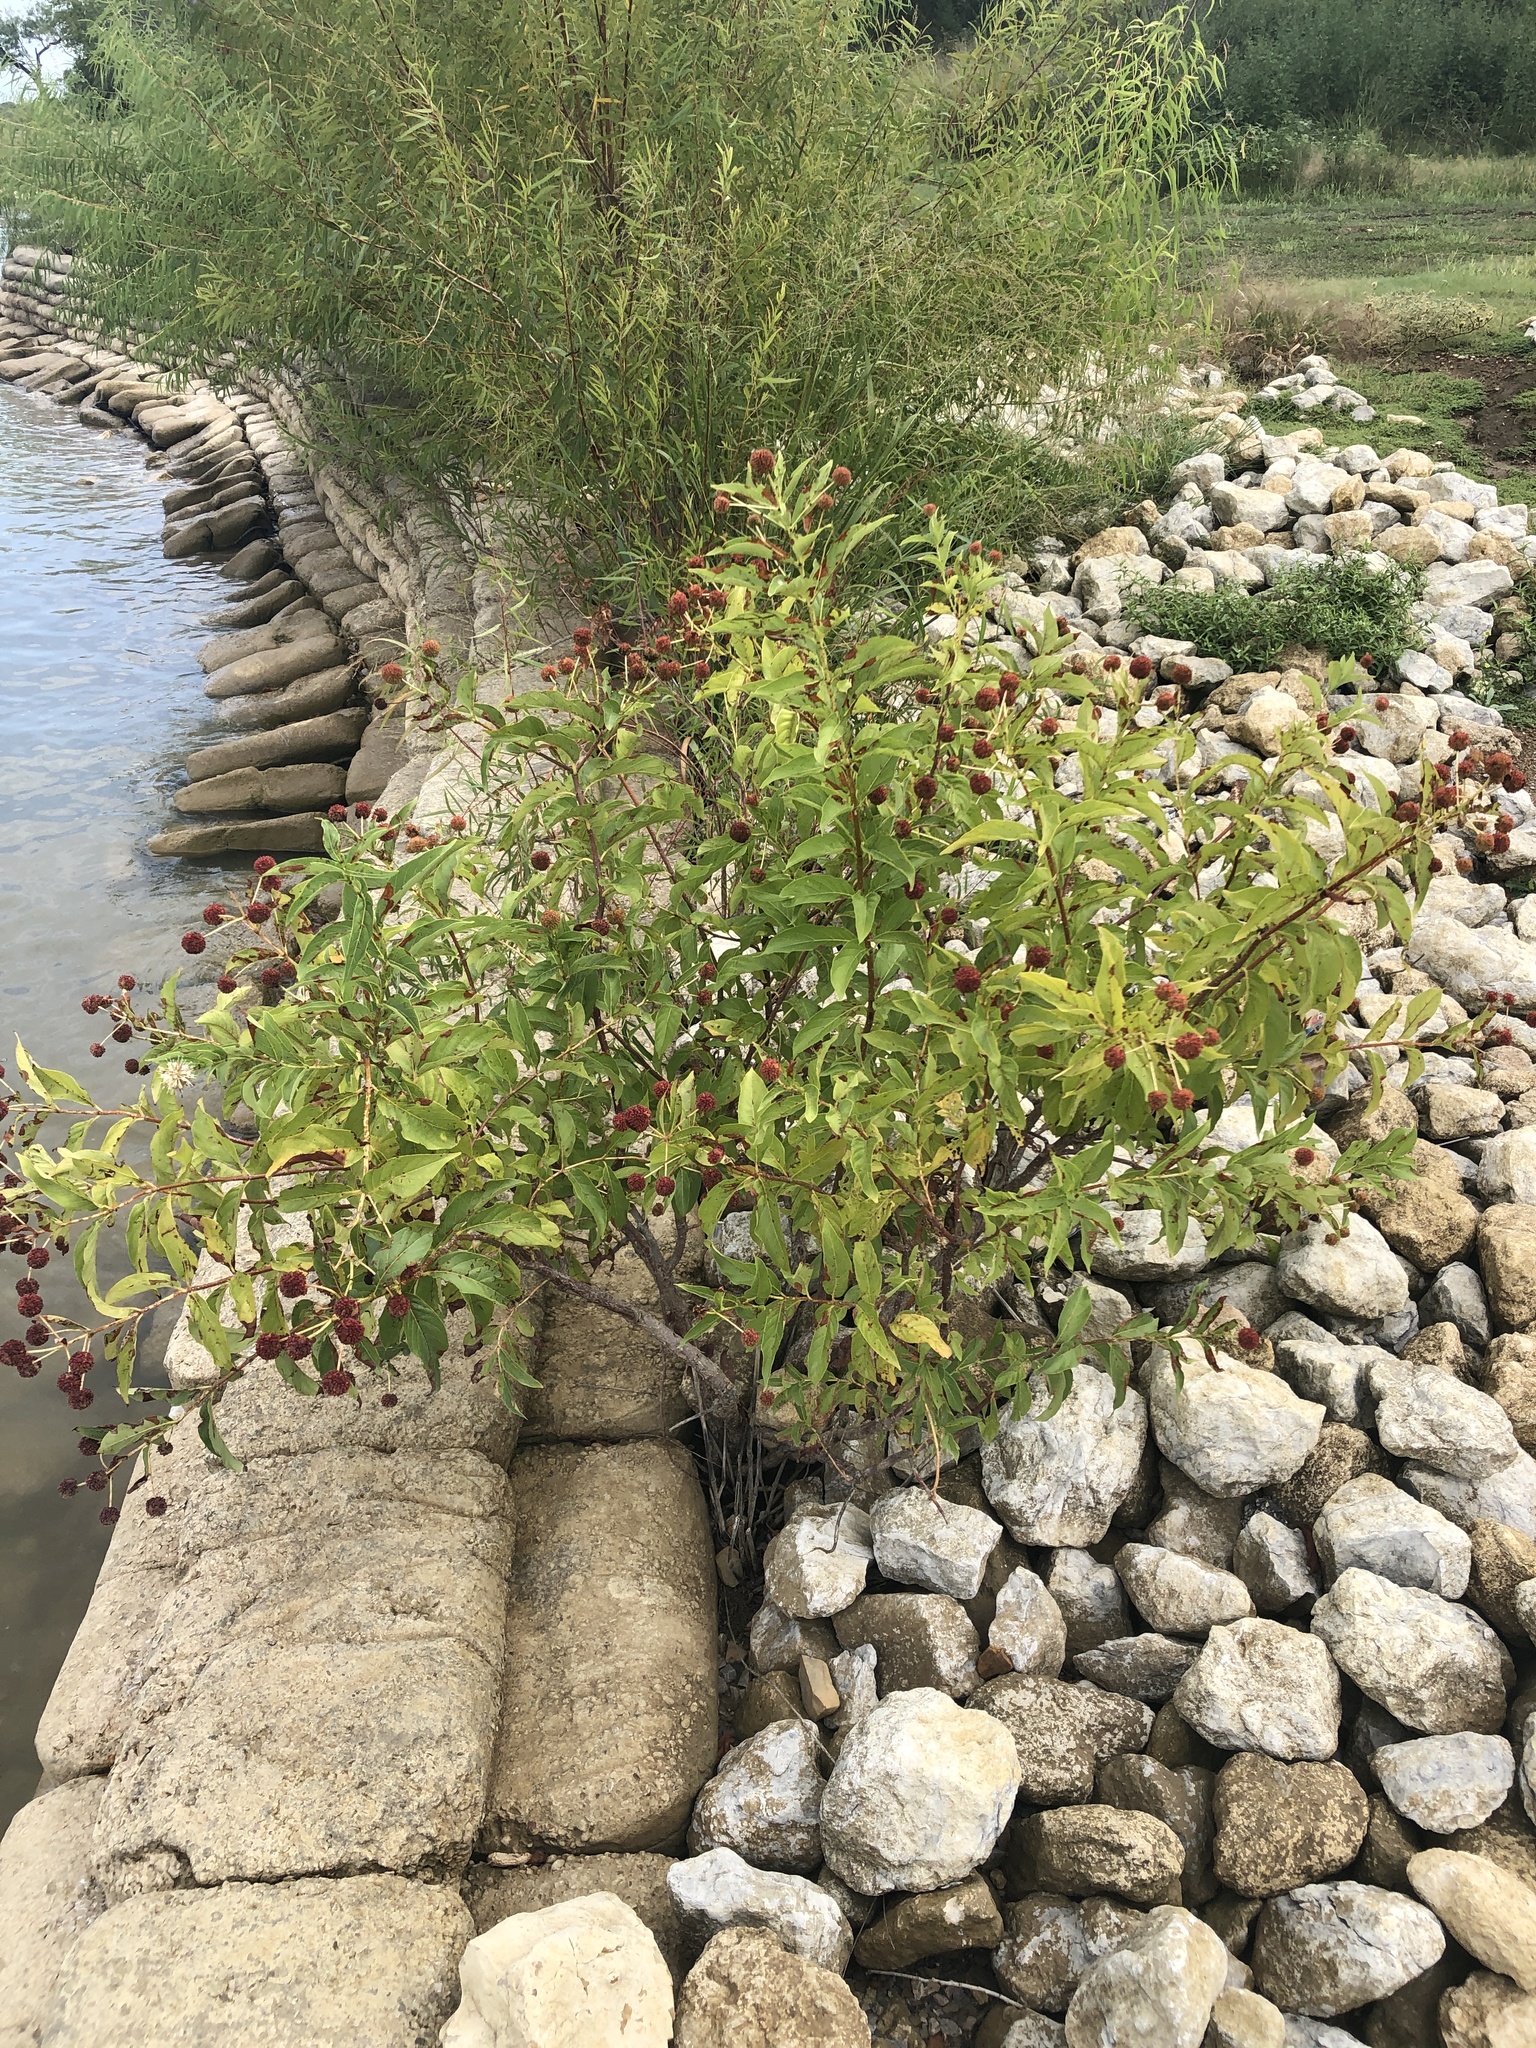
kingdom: Plantae
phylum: Tracheophyta
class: Magnoliopsida
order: Gentianales
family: Rubiaceae
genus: Cephalanthus
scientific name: Cephalanthus occidentalis
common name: Button-willow
